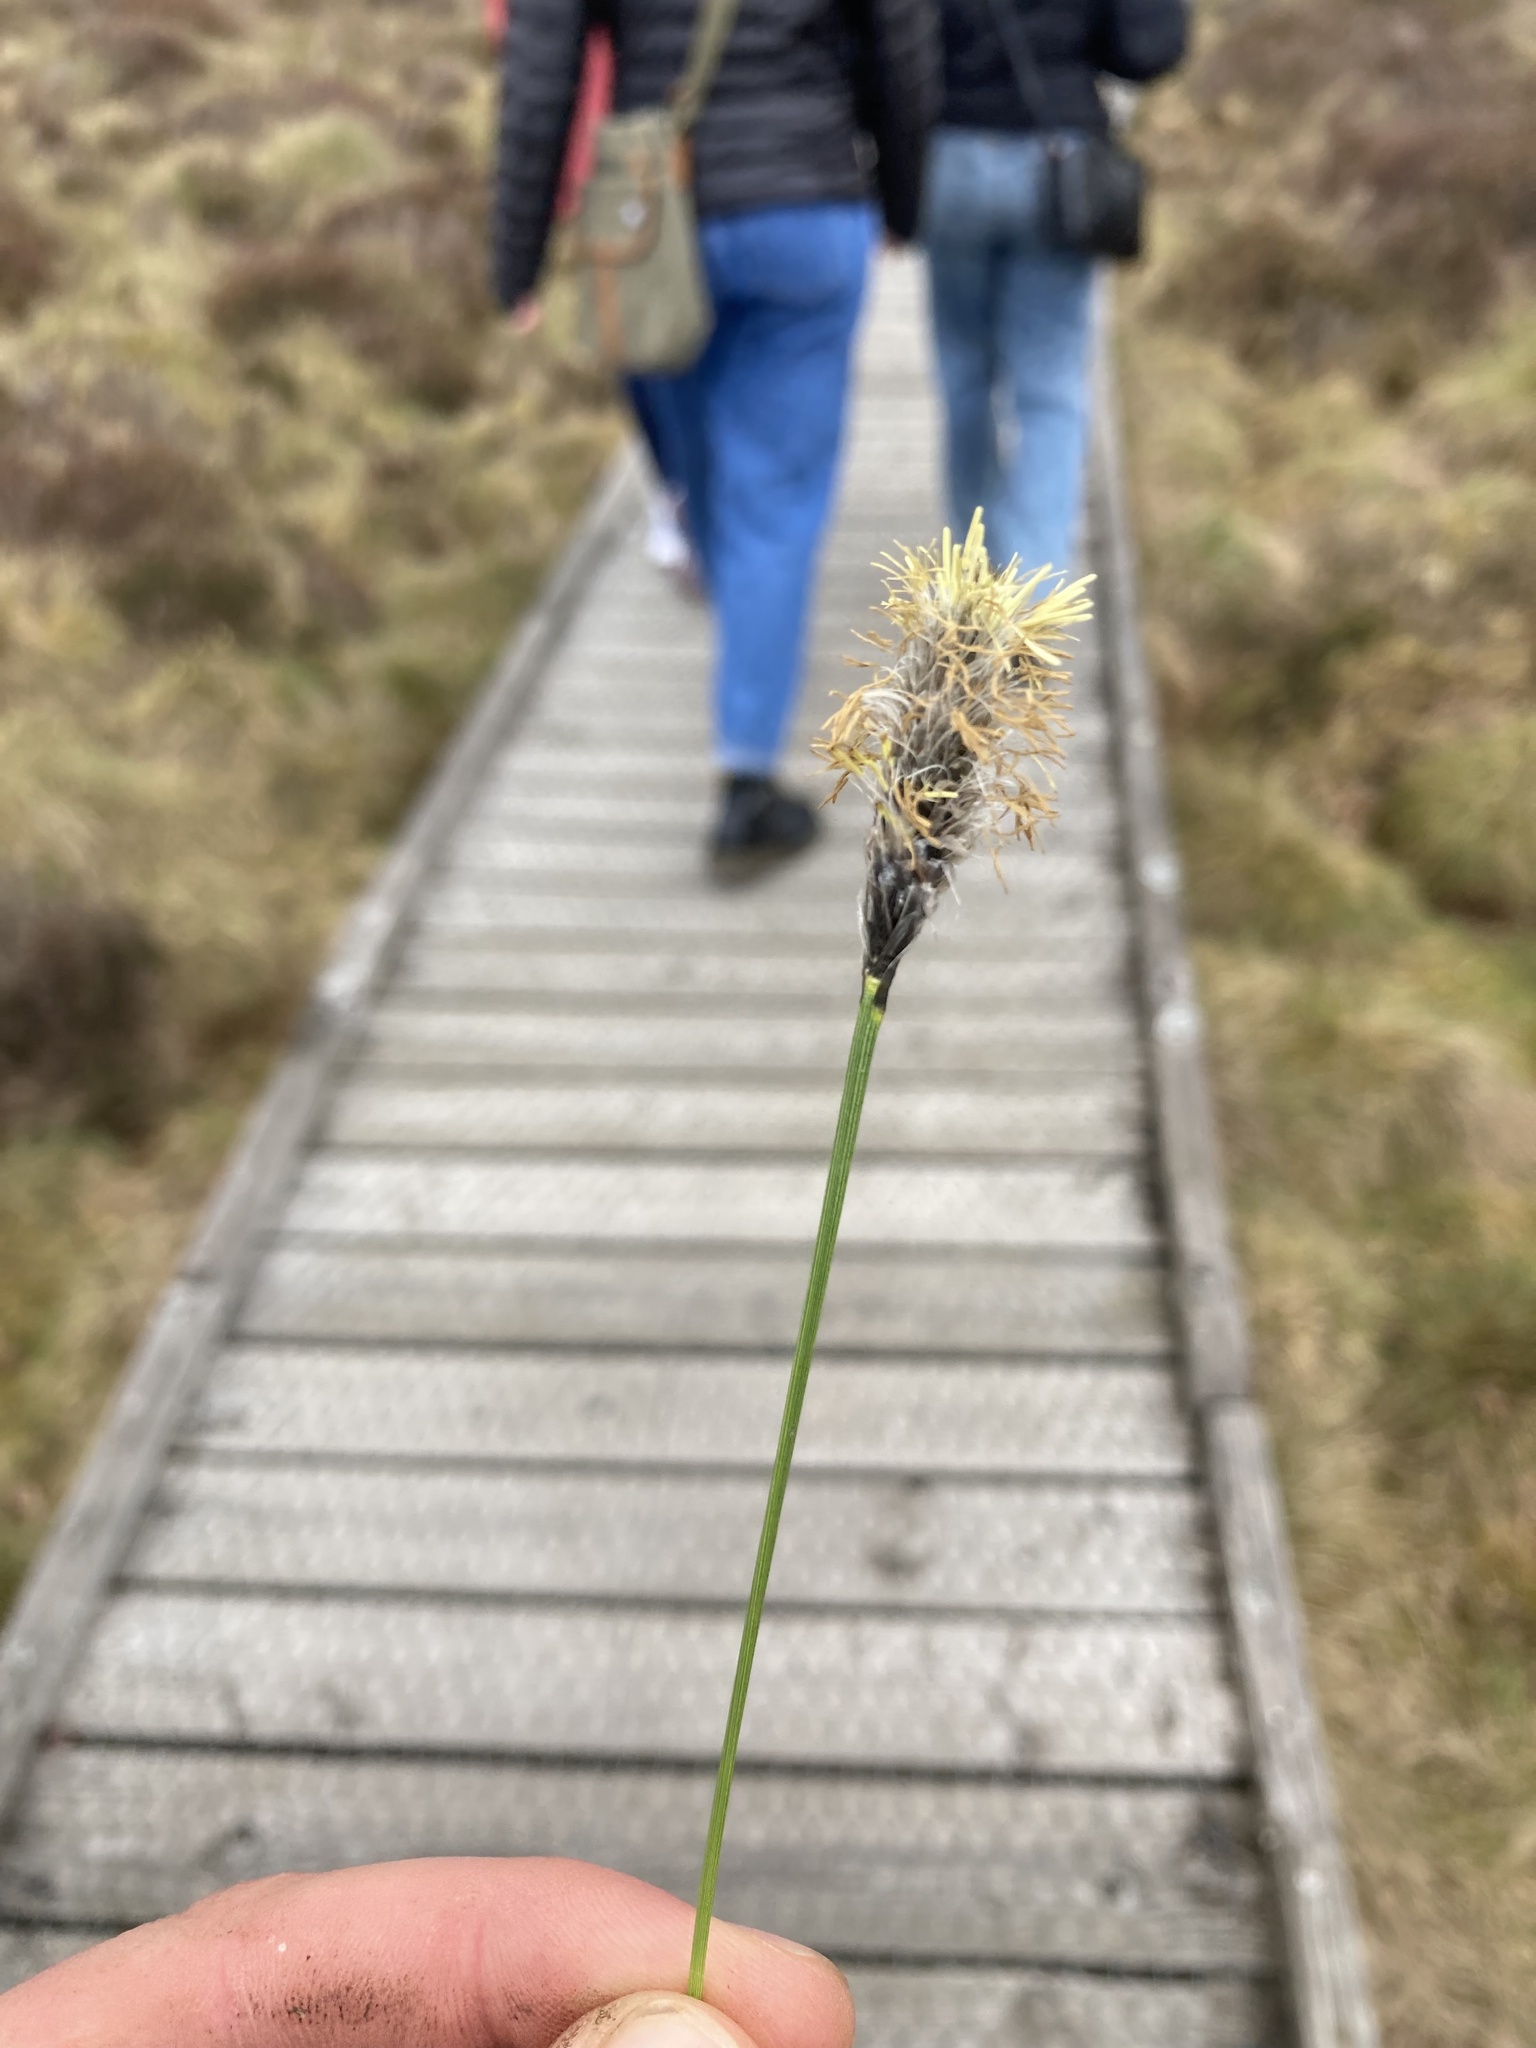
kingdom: Plantae
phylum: Tracheophyta
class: Liliopsida
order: Poales
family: Cyperaceae
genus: Eriophorum
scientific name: Eriophorum vaginatum
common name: Hare's-tail cottongrass
